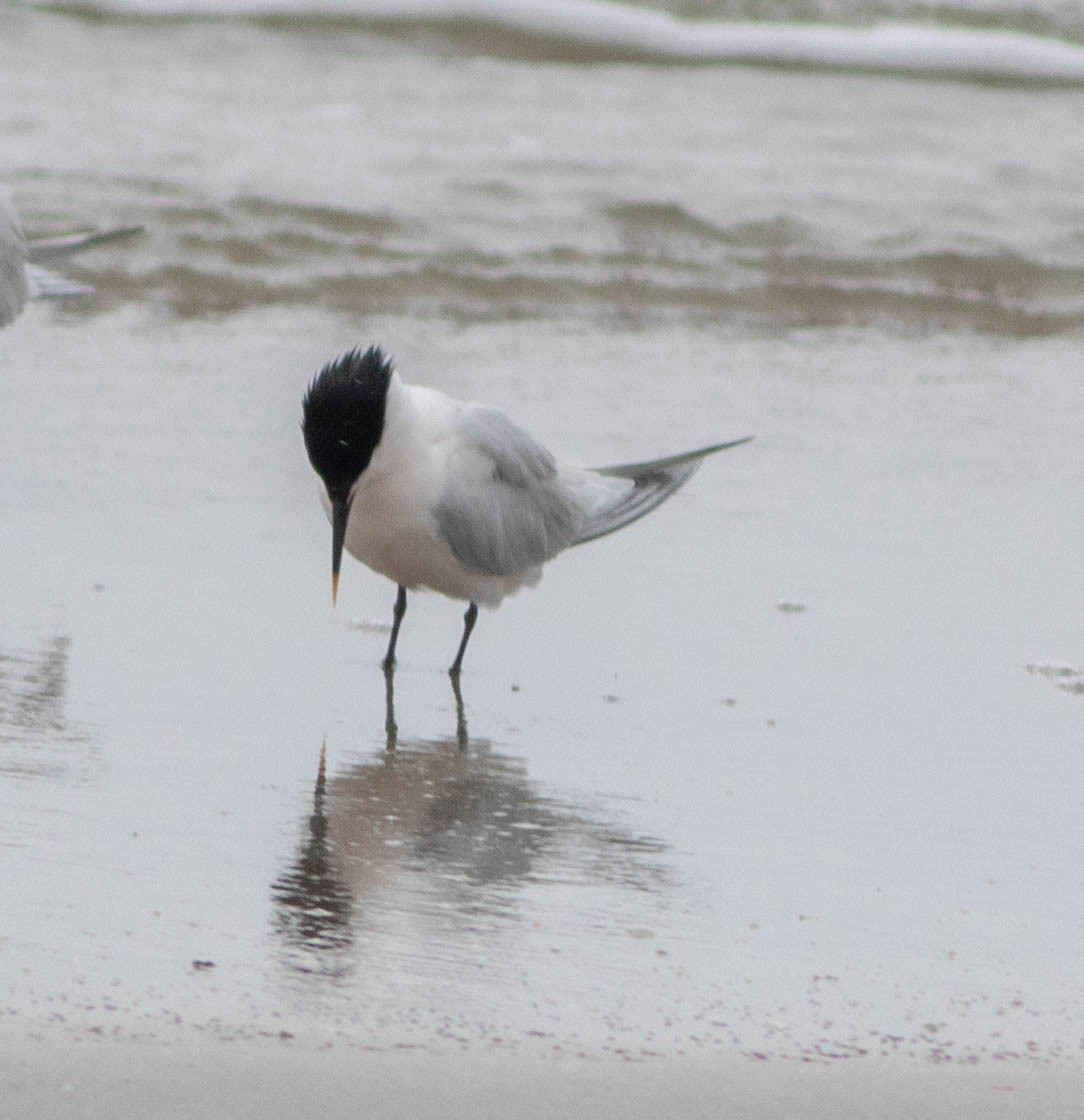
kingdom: Animalia
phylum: Chordata
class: Aves
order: Charadriiformes
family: Laridae
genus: Thalasseus
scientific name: Thalasseus sandvicensis
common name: Sandwich tern
